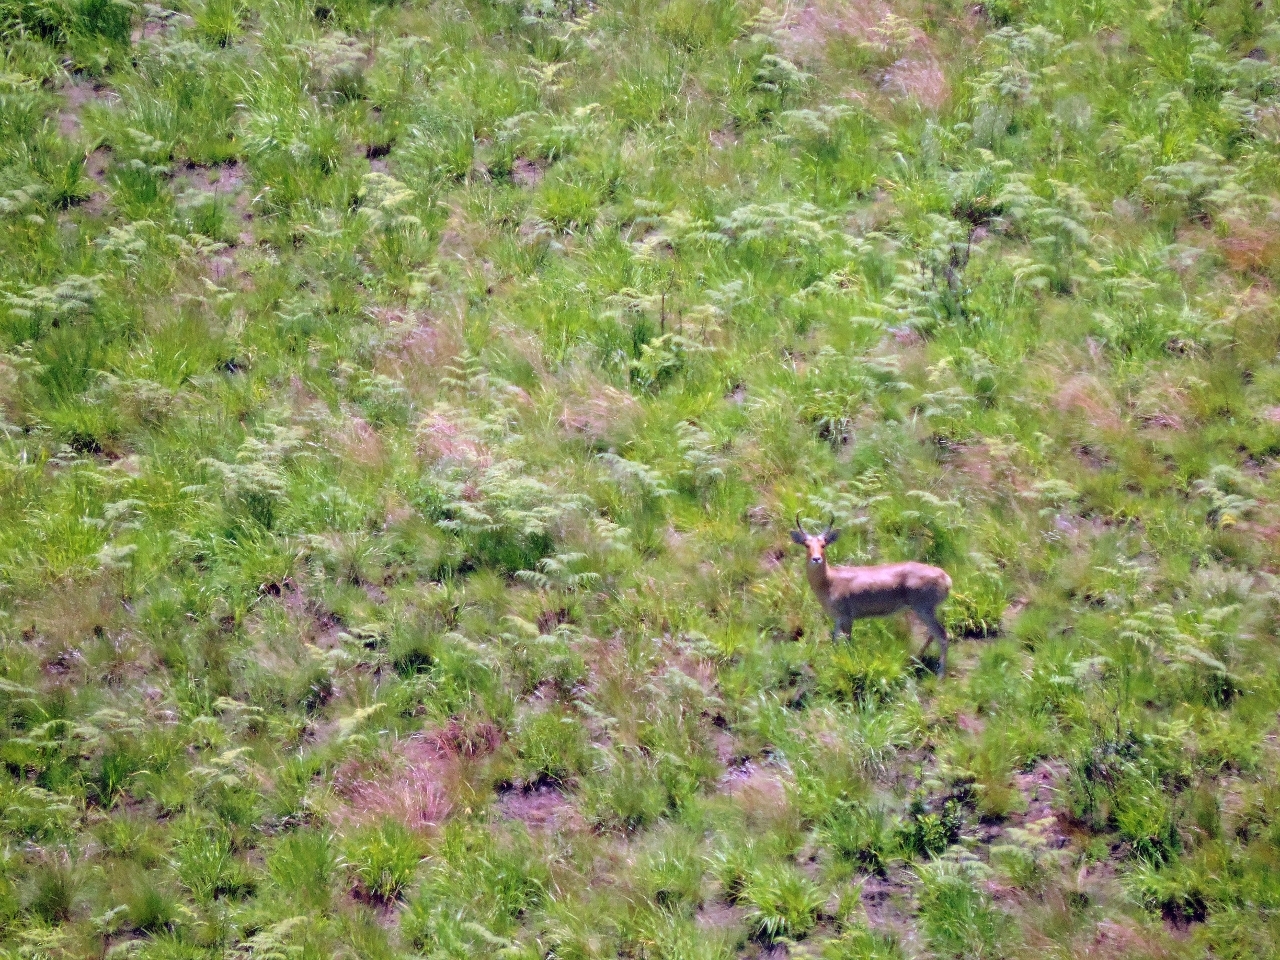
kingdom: Animalia
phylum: Chordata
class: Mammalia
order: Artiodactyla
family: Bovidae
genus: Redunca
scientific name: Redunca arundinum
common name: Southern reedbuck
